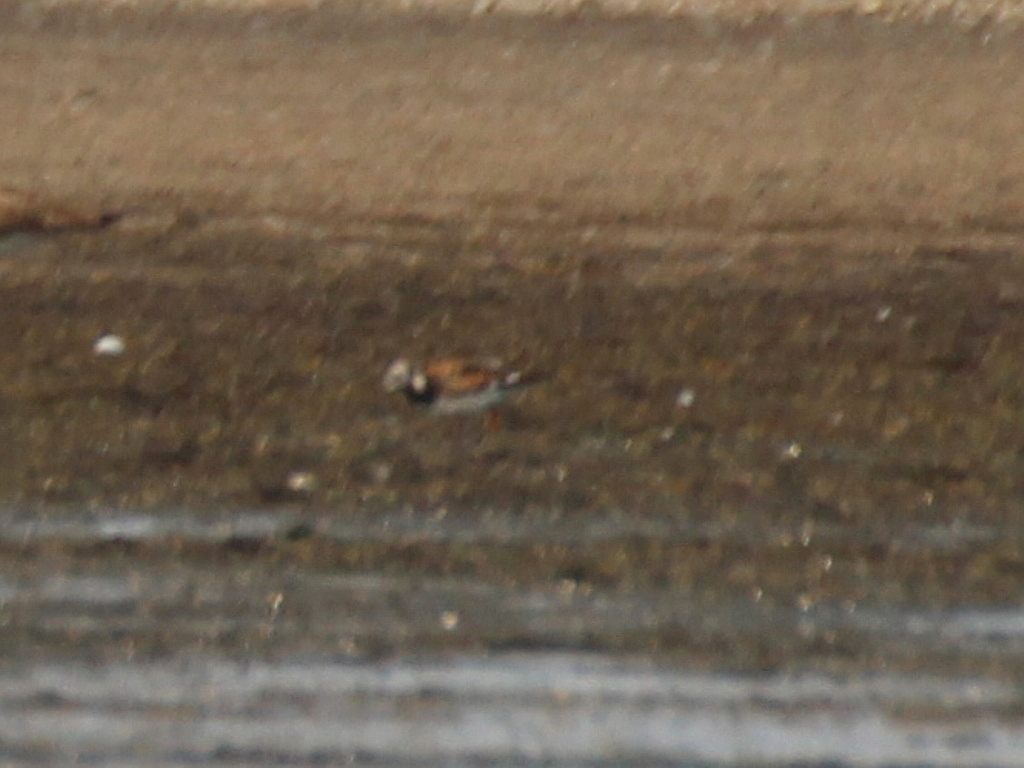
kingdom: Animalia
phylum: Chordata
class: Aves
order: Charadriiformes
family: Scolopacidae
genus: Arenaria
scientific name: Arenaria interpres
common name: Ruddy turnstone
